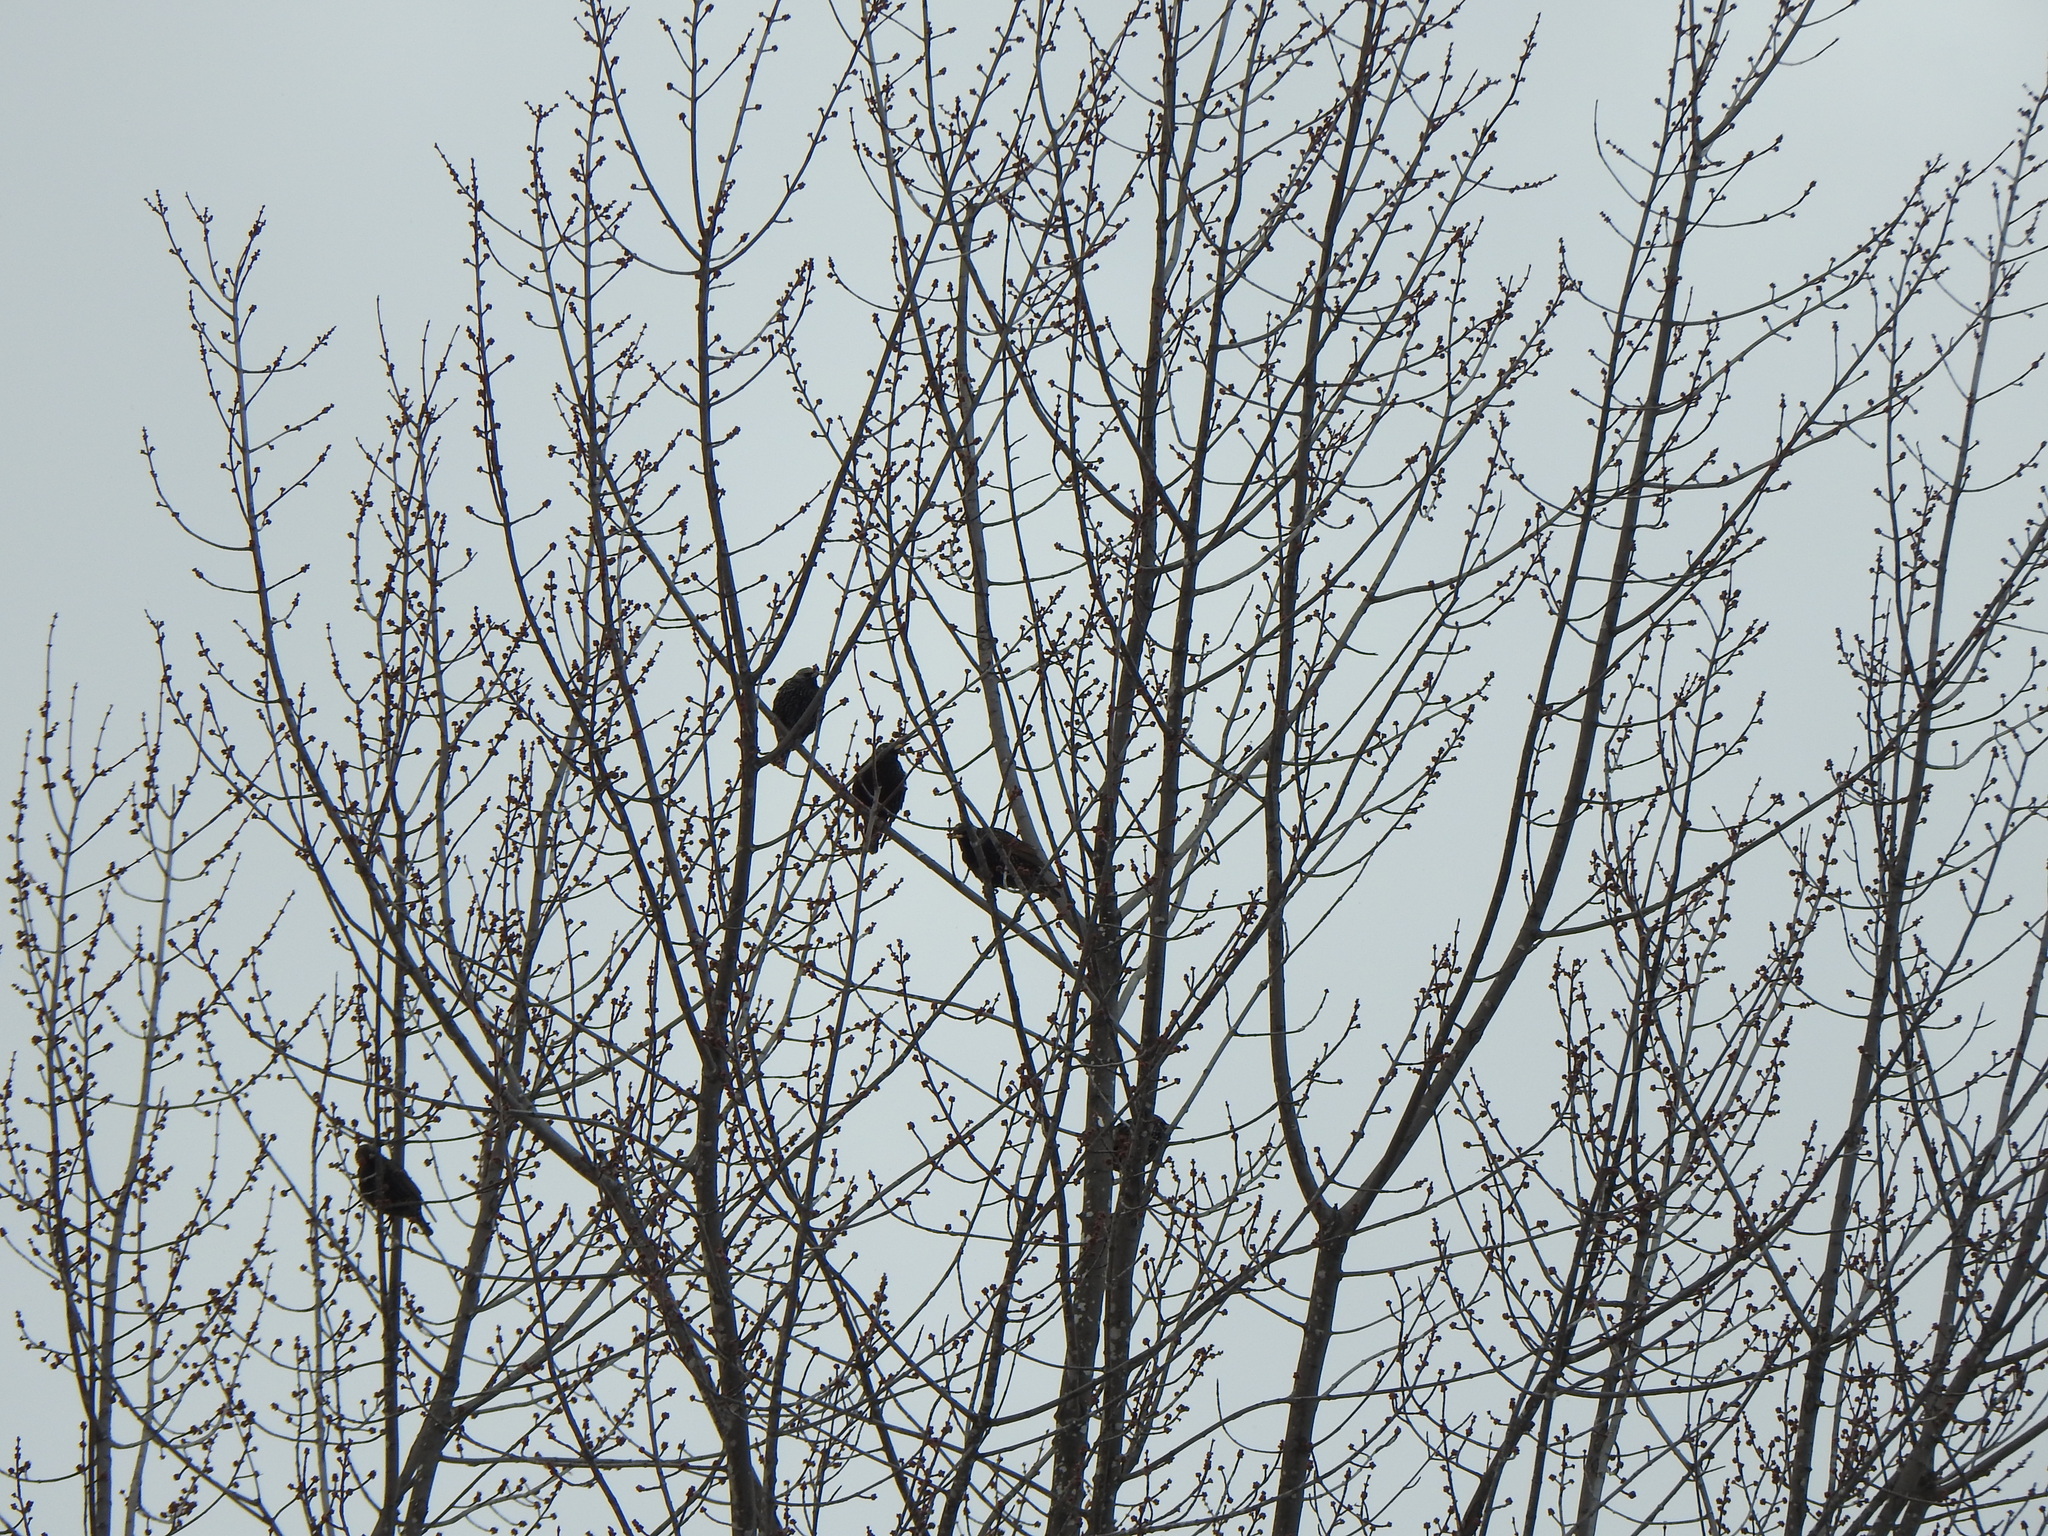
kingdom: Animalia
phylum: Chordata
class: Aves
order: Passeriformes
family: Sturnidae
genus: Sturnus
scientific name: Sturnus vulgaris
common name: Common starling
